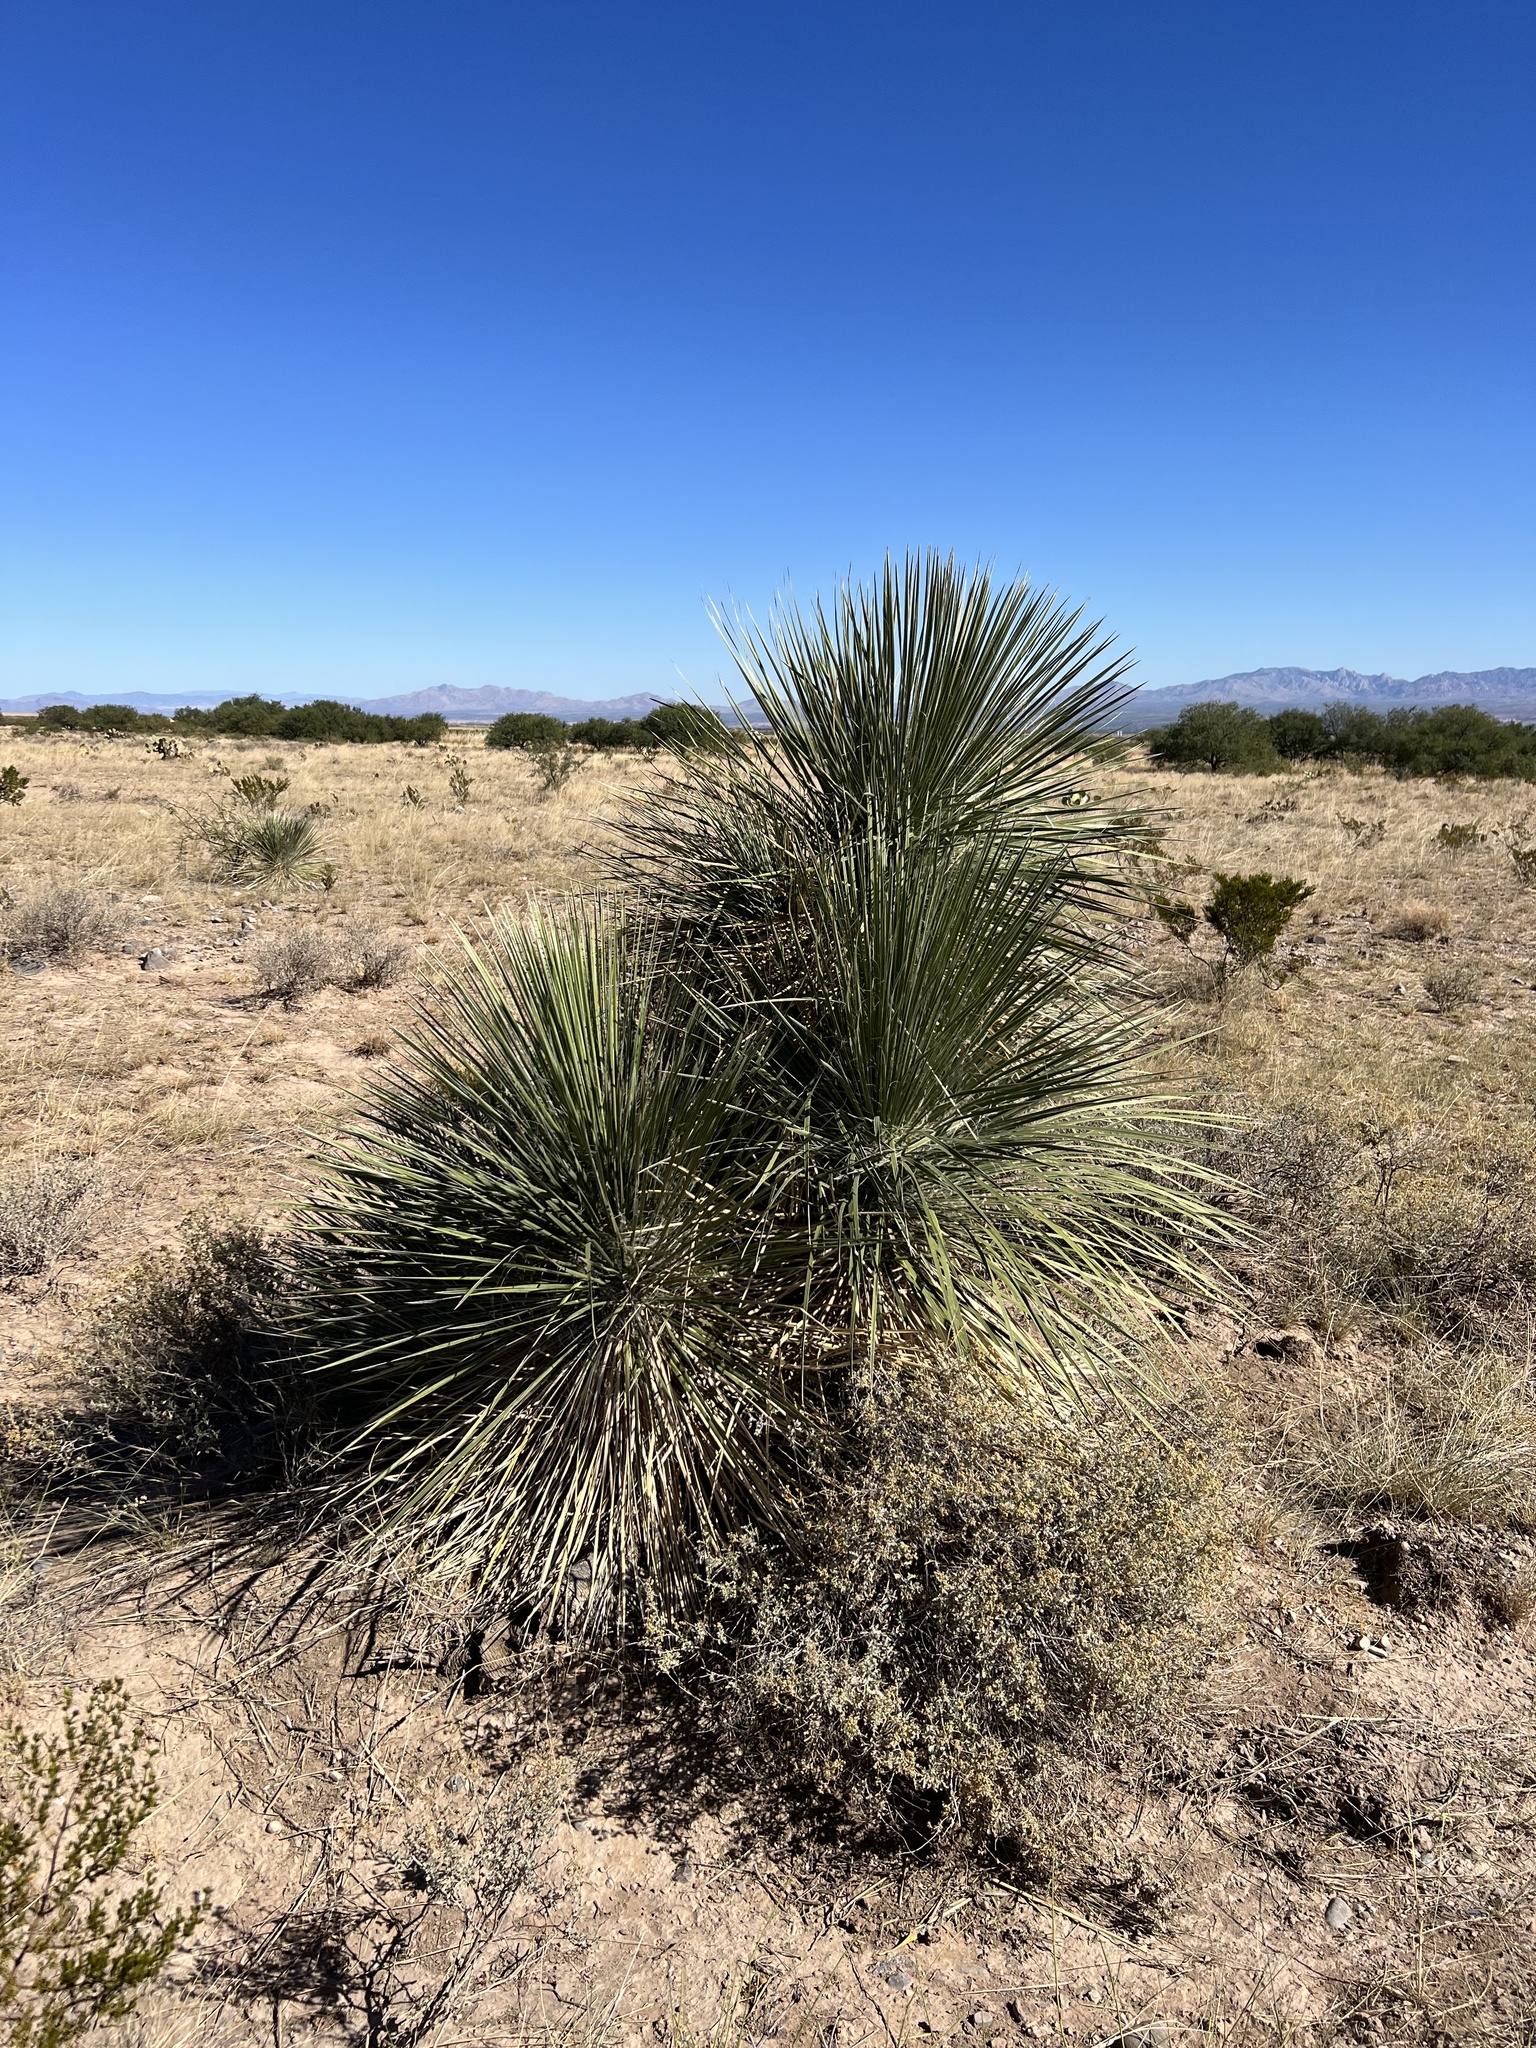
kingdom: Plantae
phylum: Tracheophyta
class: Liliopsida
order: Asparagales
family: Asparagaceae
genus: Yucca
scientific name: Yucca elata
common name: Palmella
